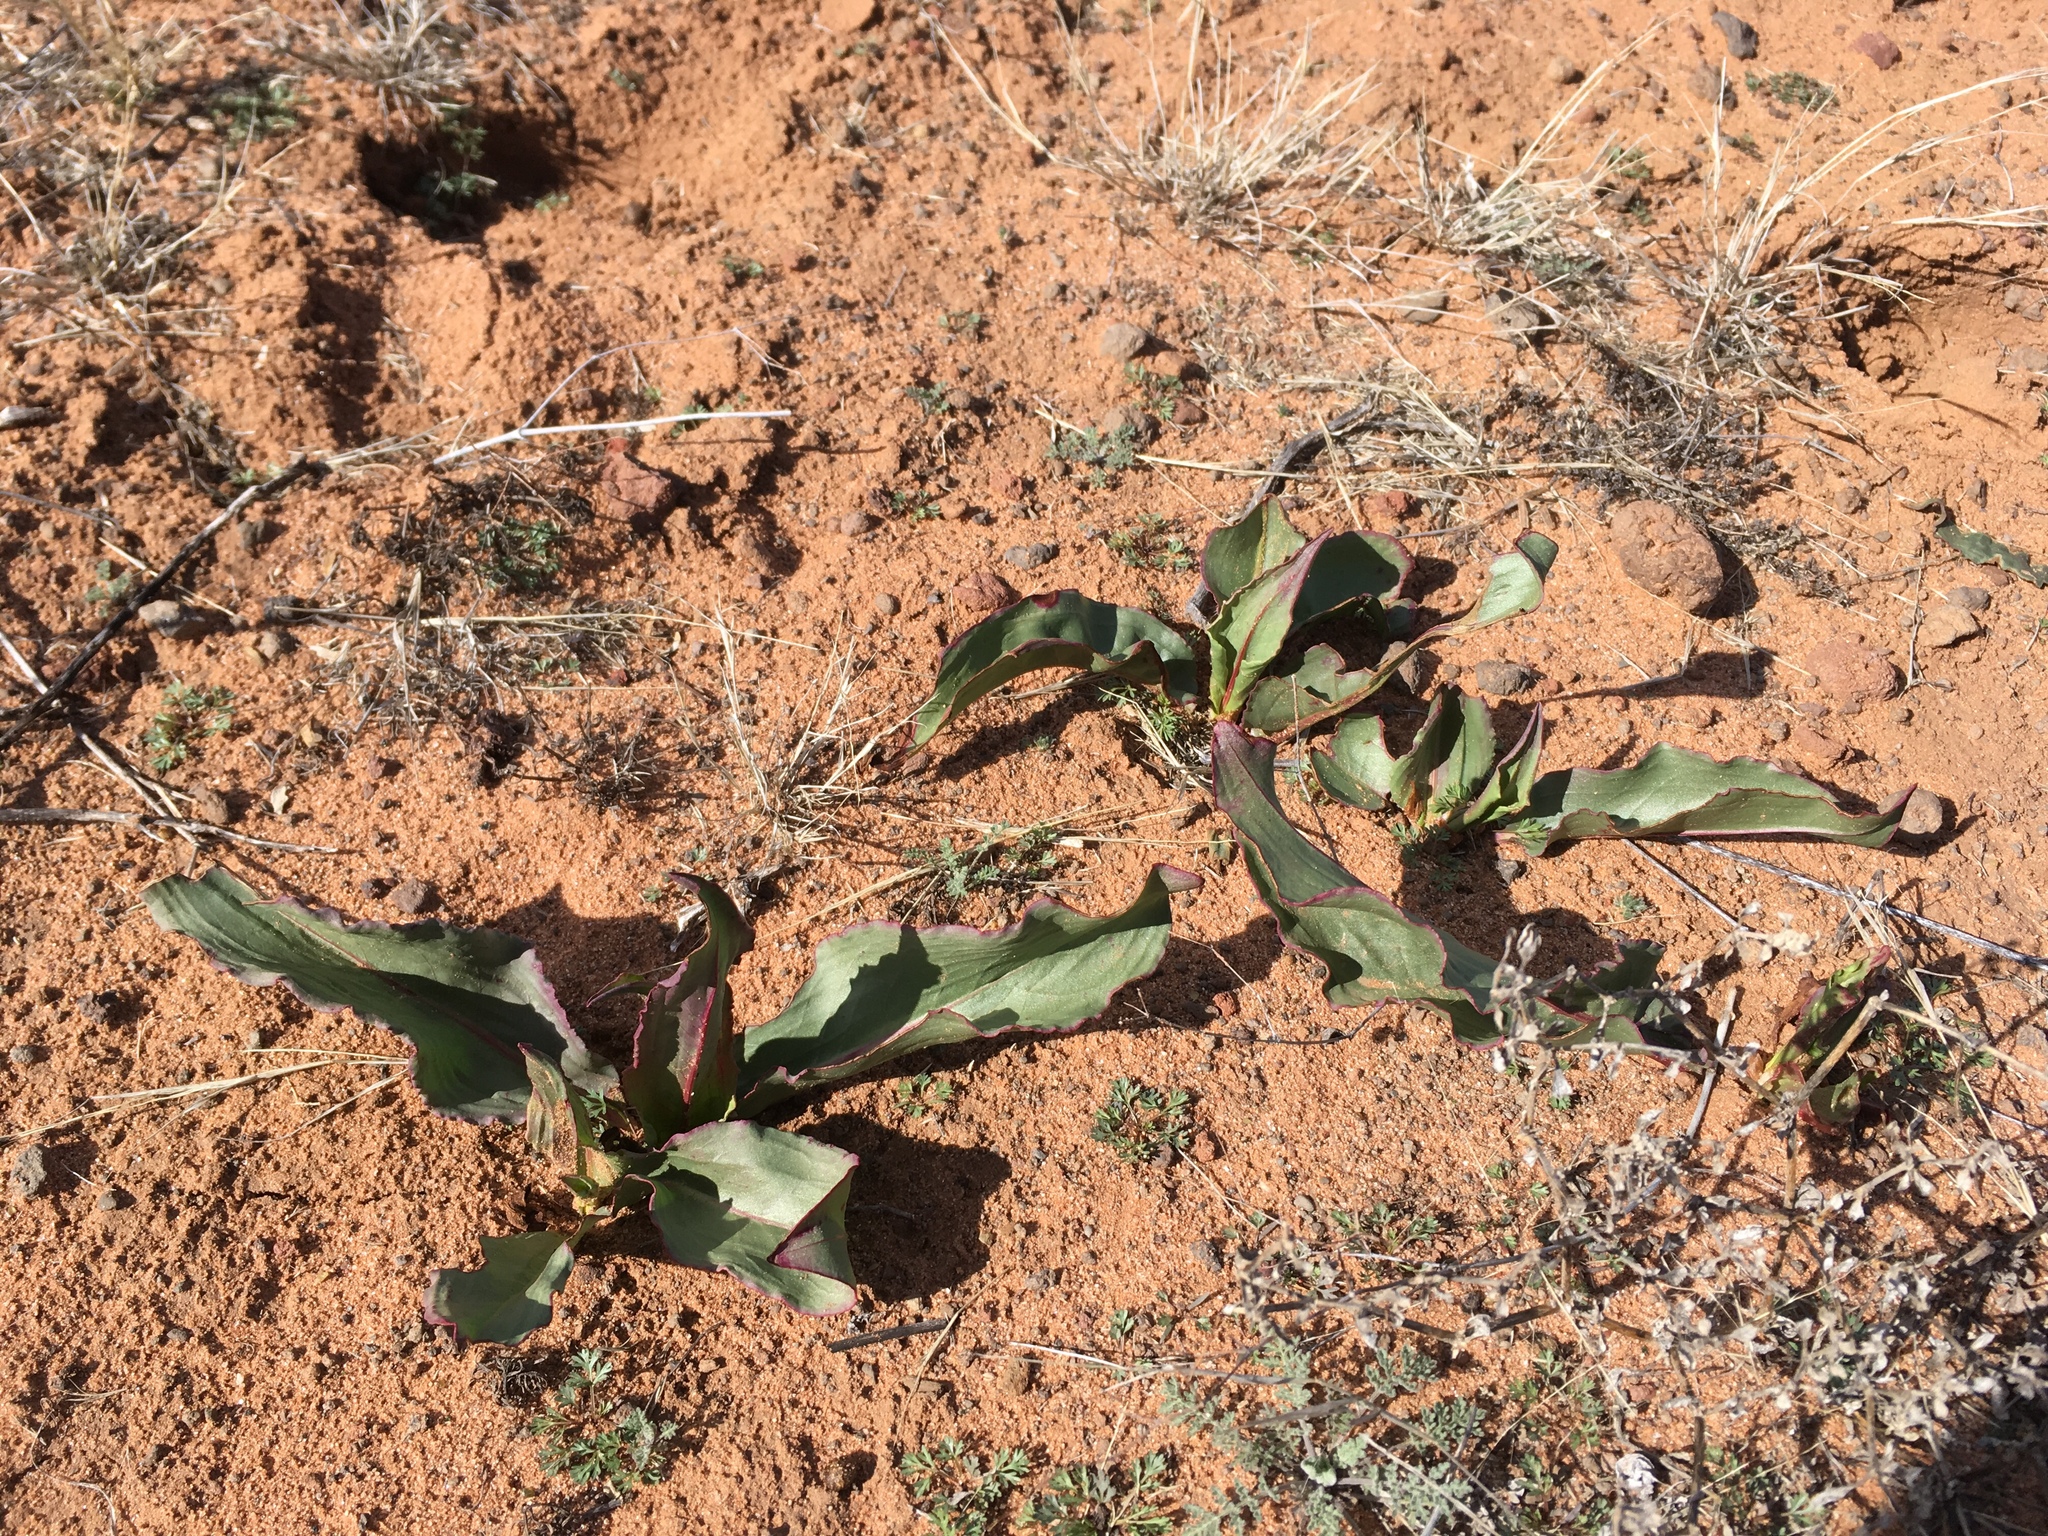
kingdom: Plantae
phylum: Tracheophyta
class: Magnoliopsida
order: Caryophyllales
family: Polygonaceae
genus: Rumex
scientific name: Rumex hymenosepalus
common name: Ganagra
